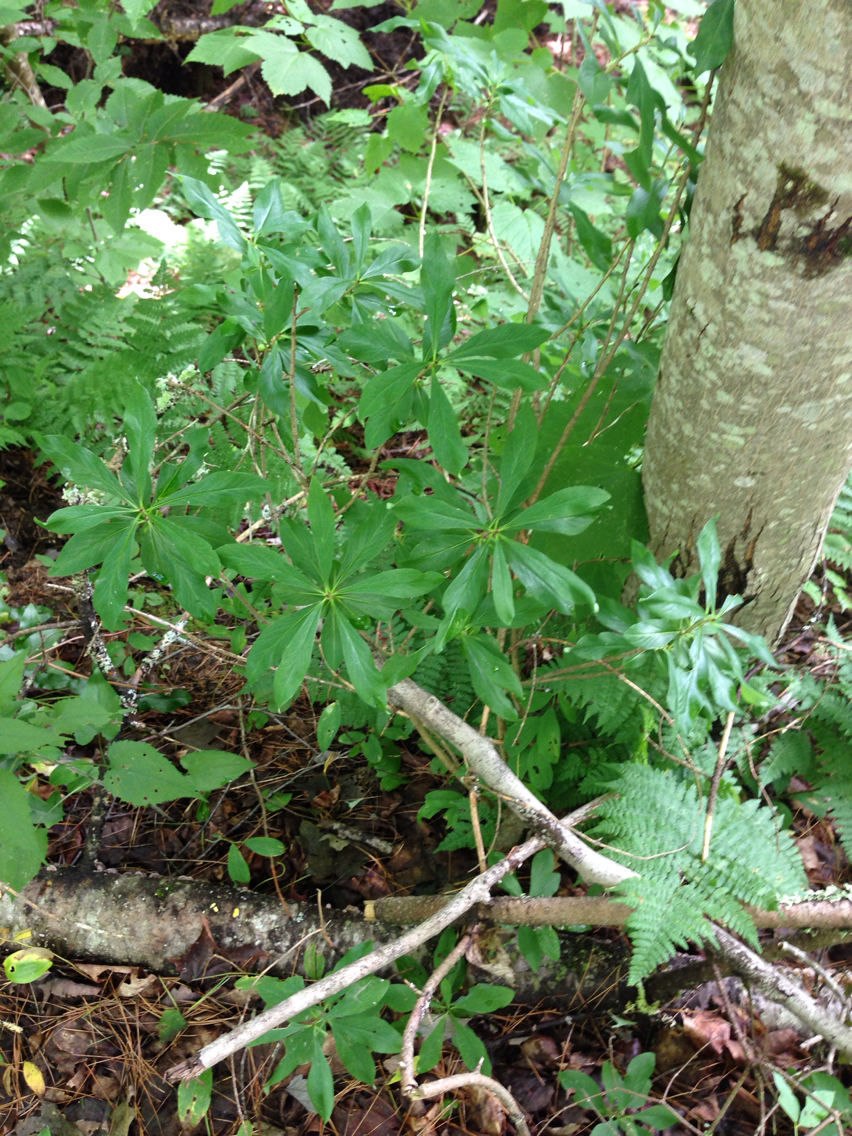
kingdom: Plantae
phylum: Tracheophyta
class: Magnoliopsida
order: Malvales
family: Thymelaeaceae
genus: Daphne
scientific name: Daphne mezereum
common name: Mezereon
